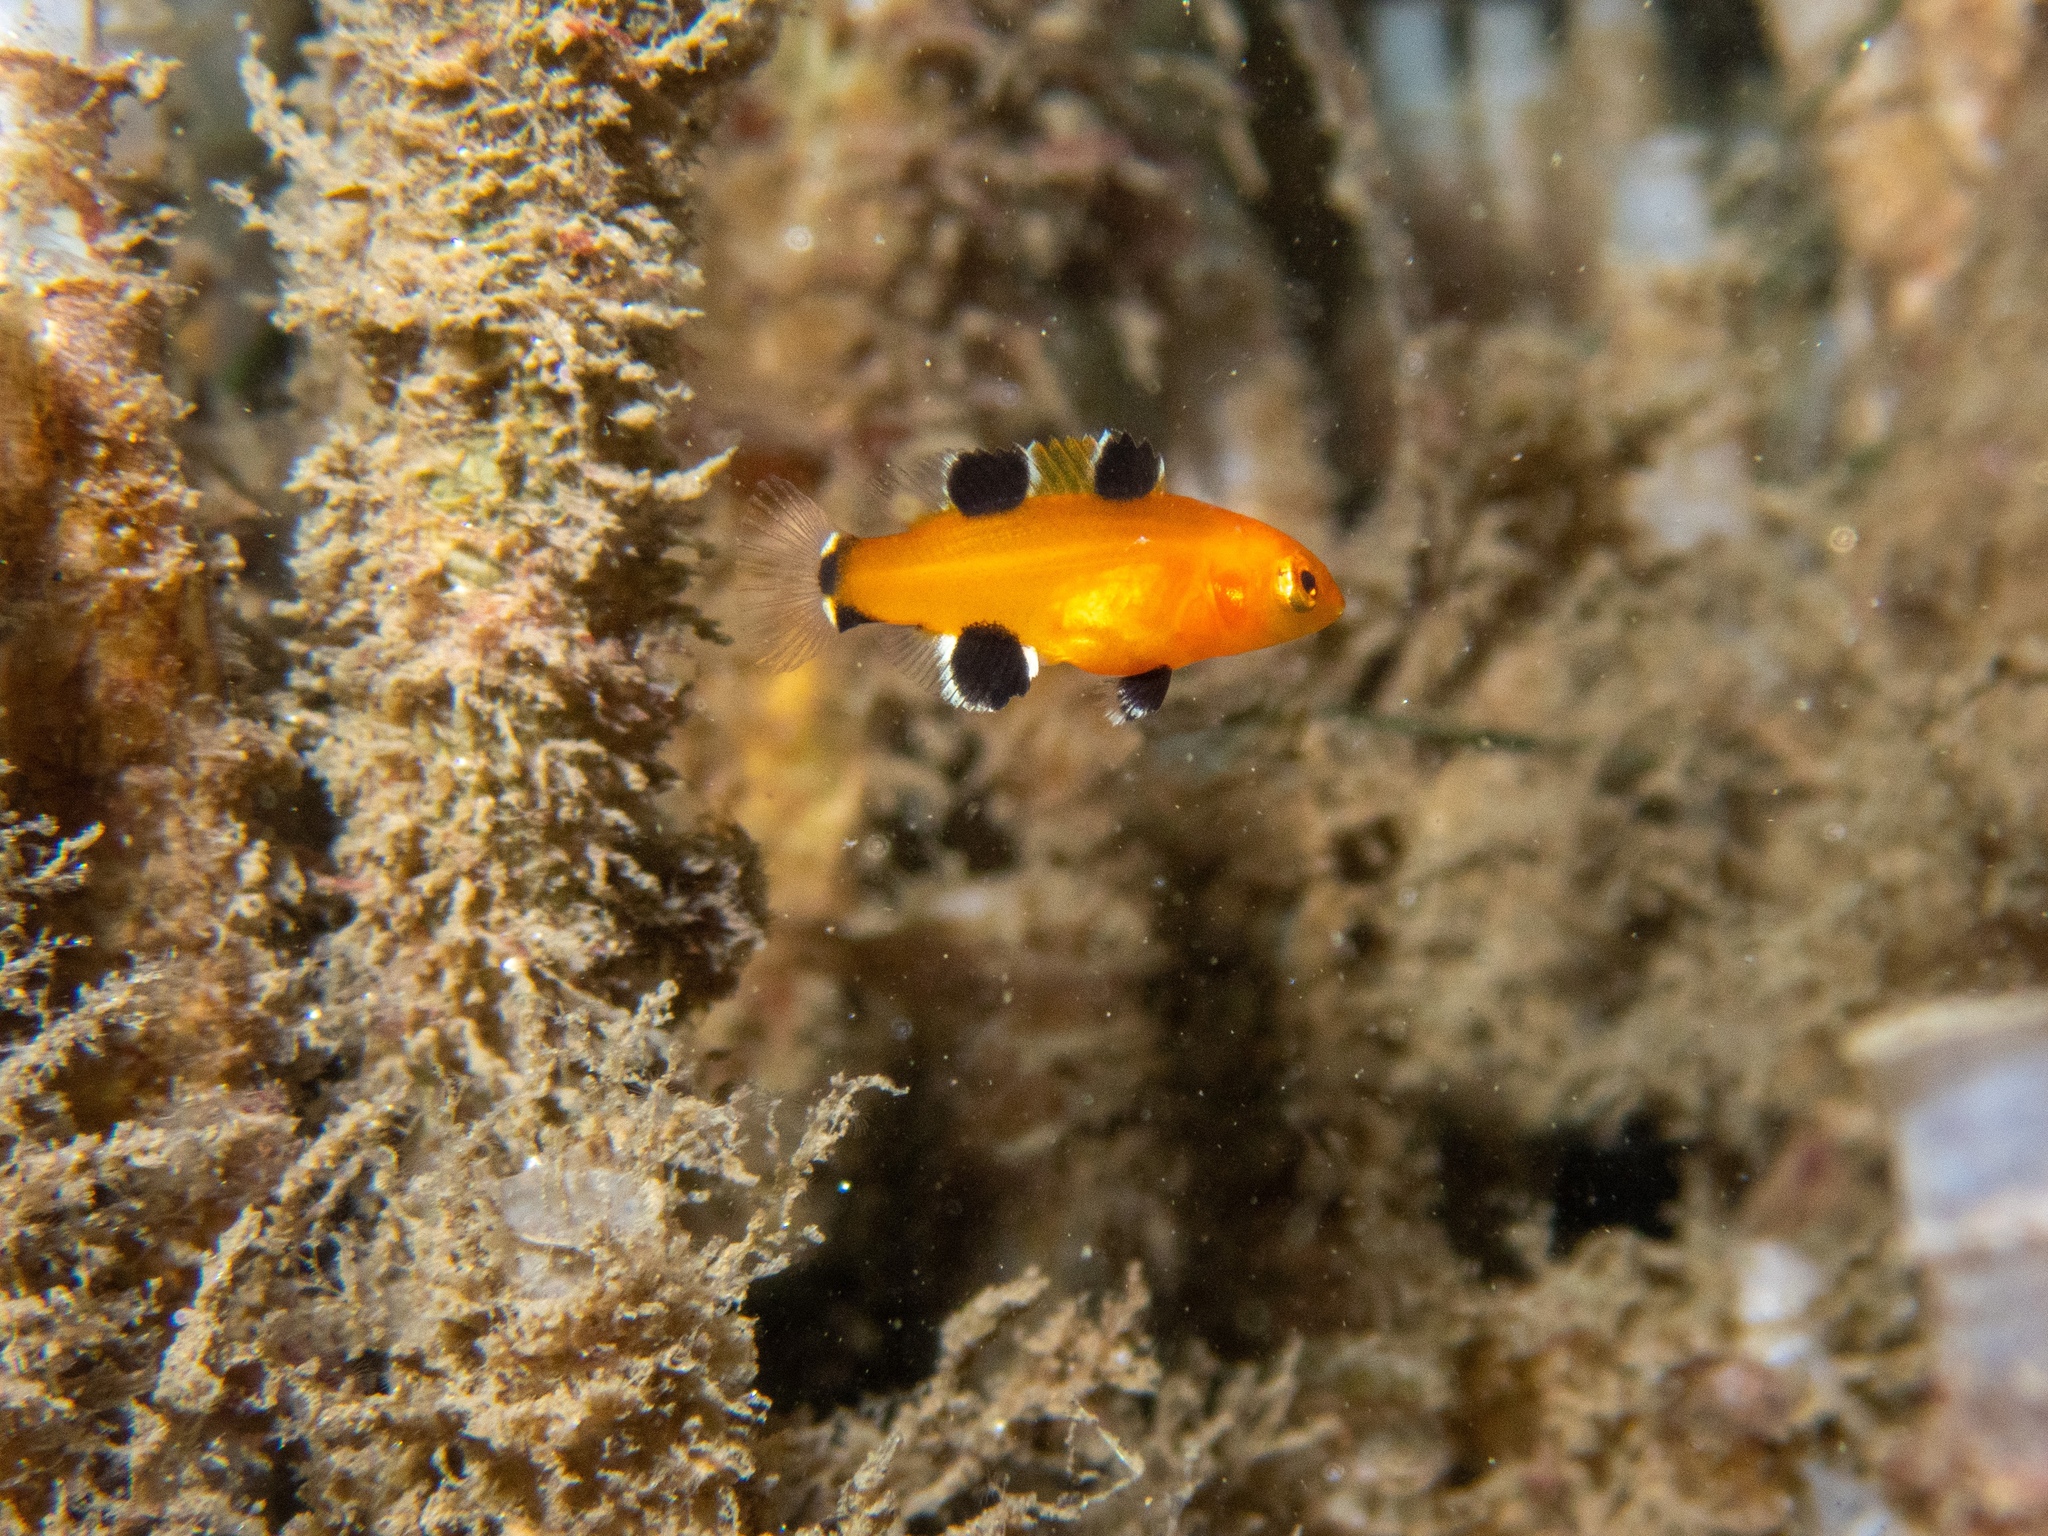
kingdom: Animalia
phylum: Chordata
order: Perciformes
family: Labridae
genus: Semicossyphus
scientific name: Semicossyphus pulcher
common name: California sheephead
